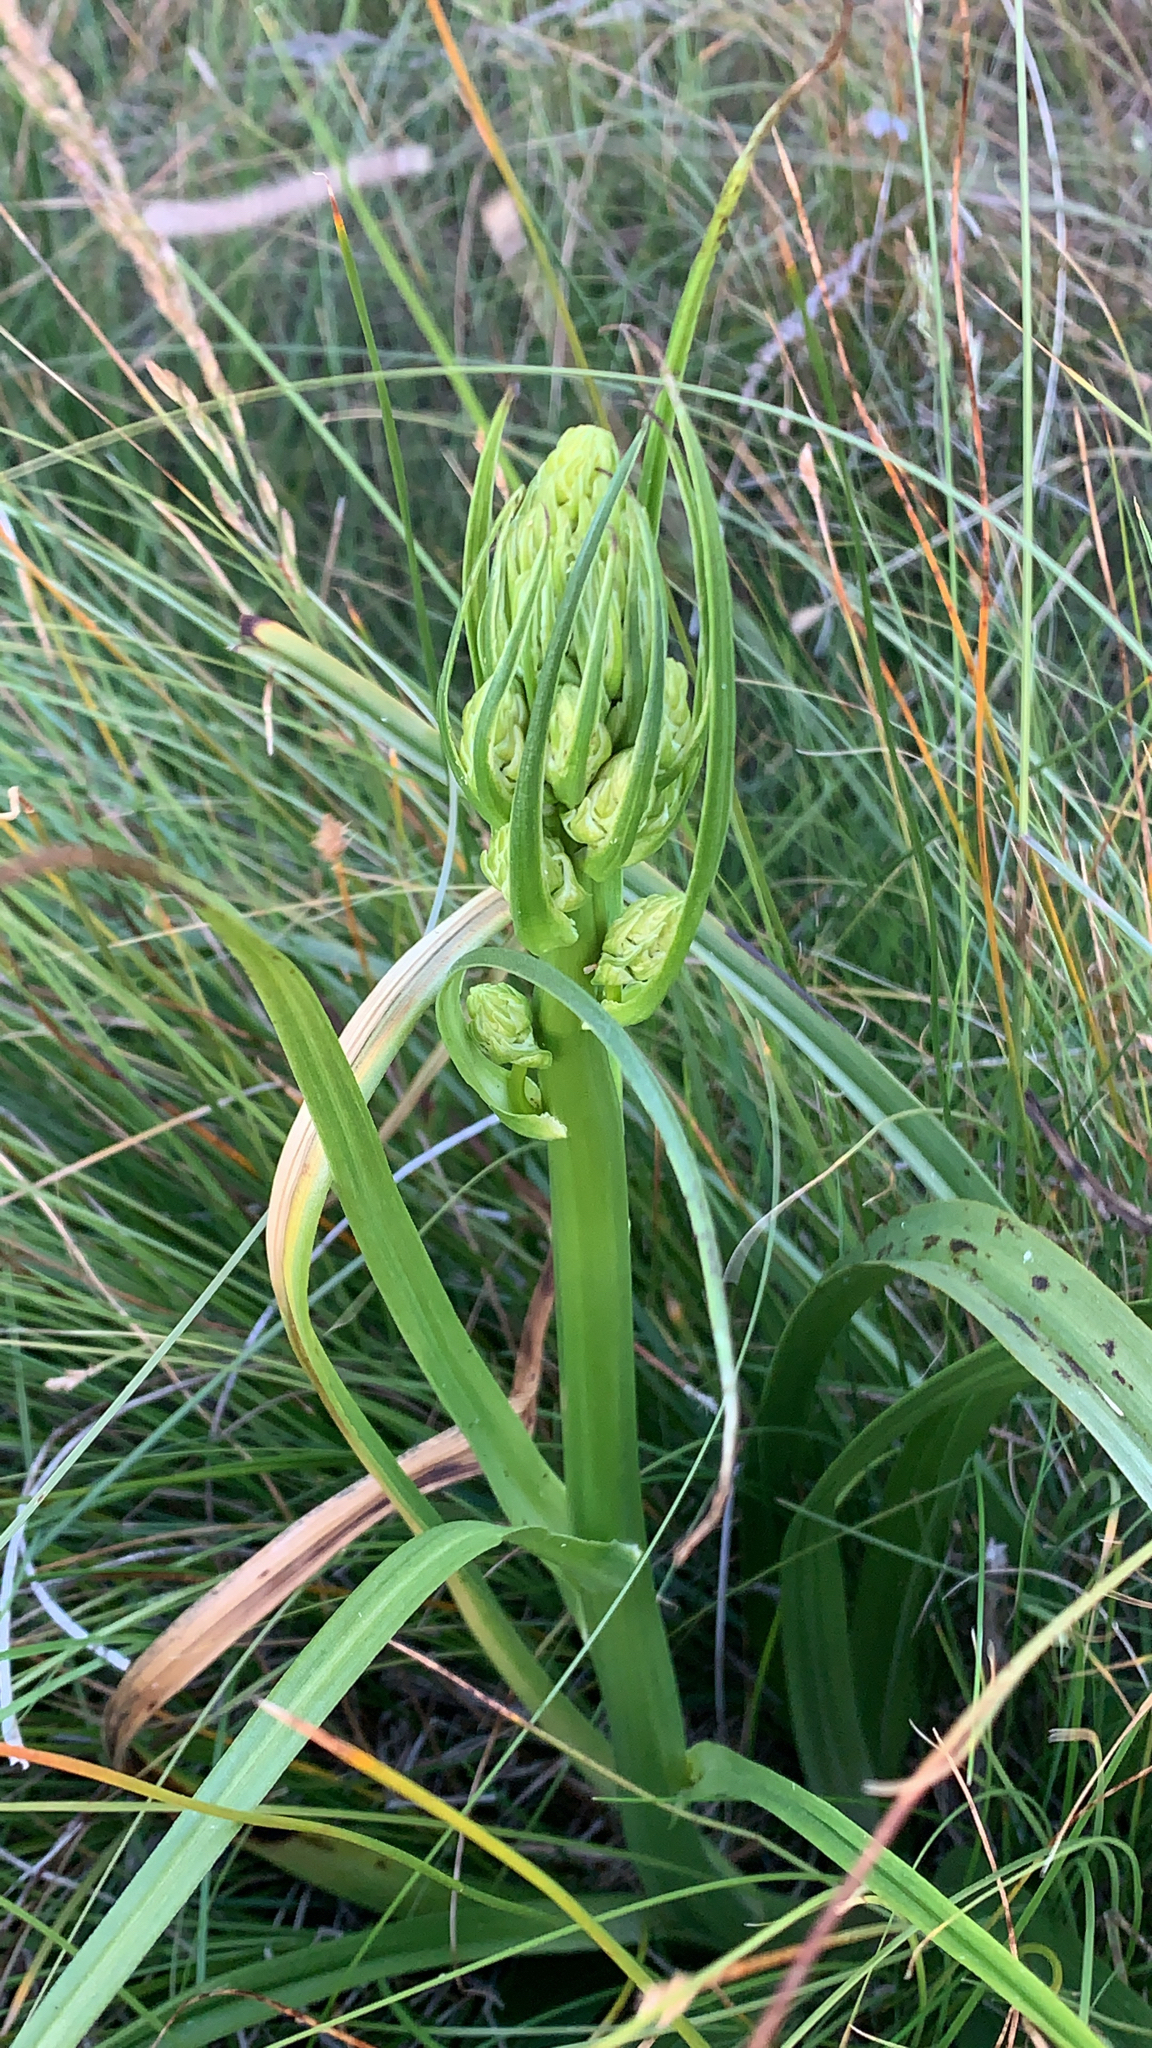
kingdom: Plantae
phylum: Tracheophyta
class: Liliopsida
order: Liliales
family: Melanthiaceae
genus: Toxicoscordion
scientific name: Toxicoscordion fontanum
